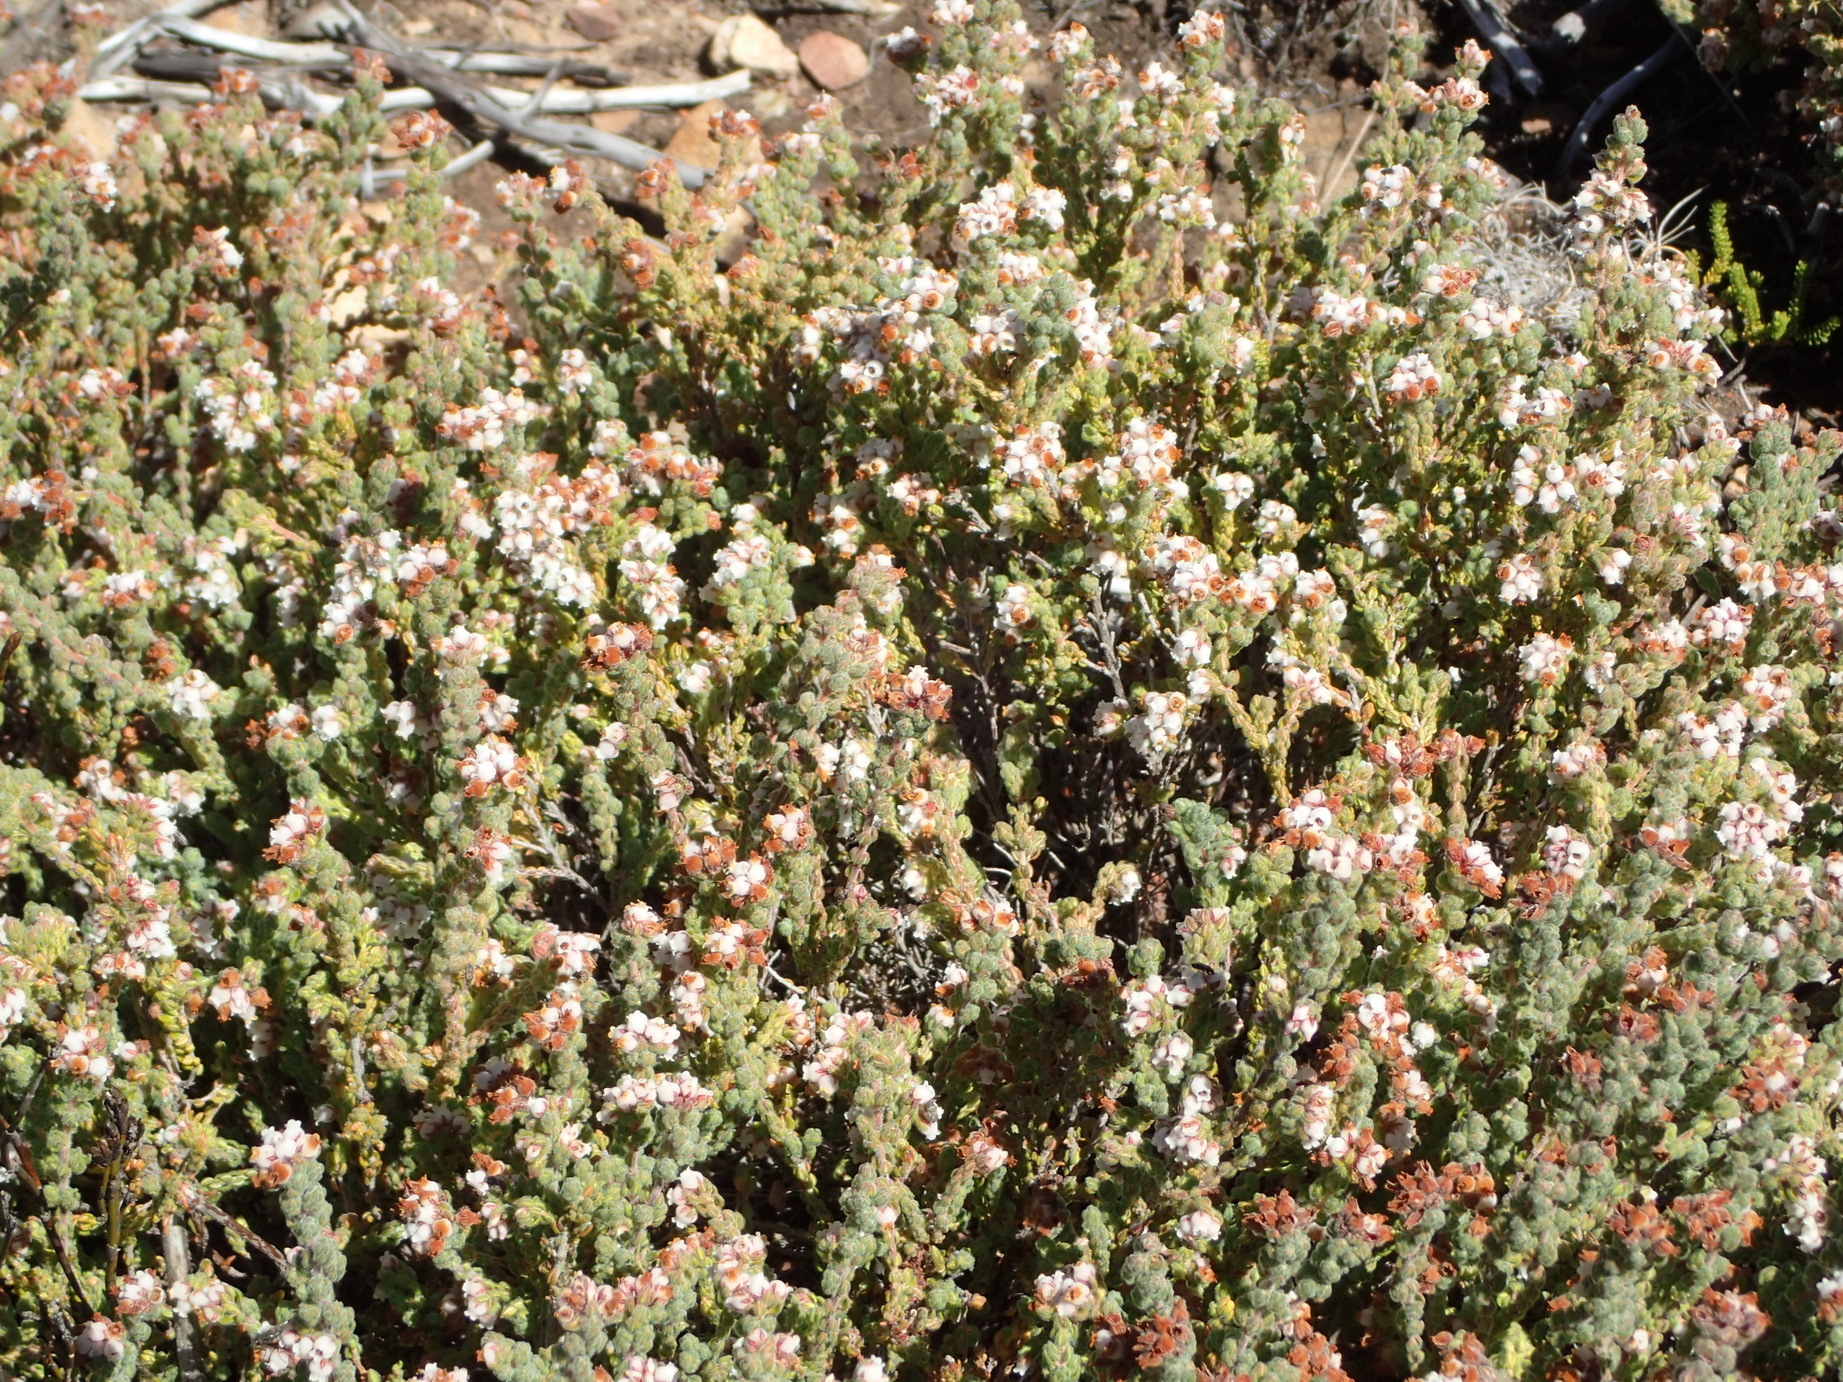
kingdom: Plantae
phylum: Tracheophyta
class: Magnoliopsida
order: Ericales
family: Ericaceae
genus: Erica
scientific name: Erica oreotragus
